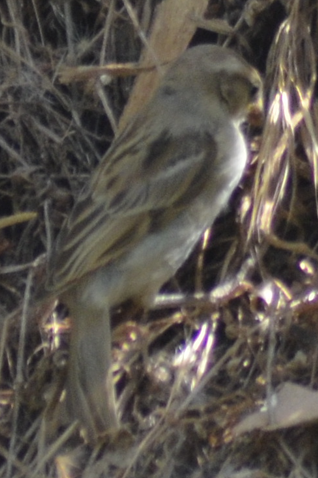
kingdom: Animalia
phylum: Chordata
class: Aves
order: Passeriformes
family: Passeridae
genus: Passer
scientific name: Passer domesticus
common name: House sparrow
